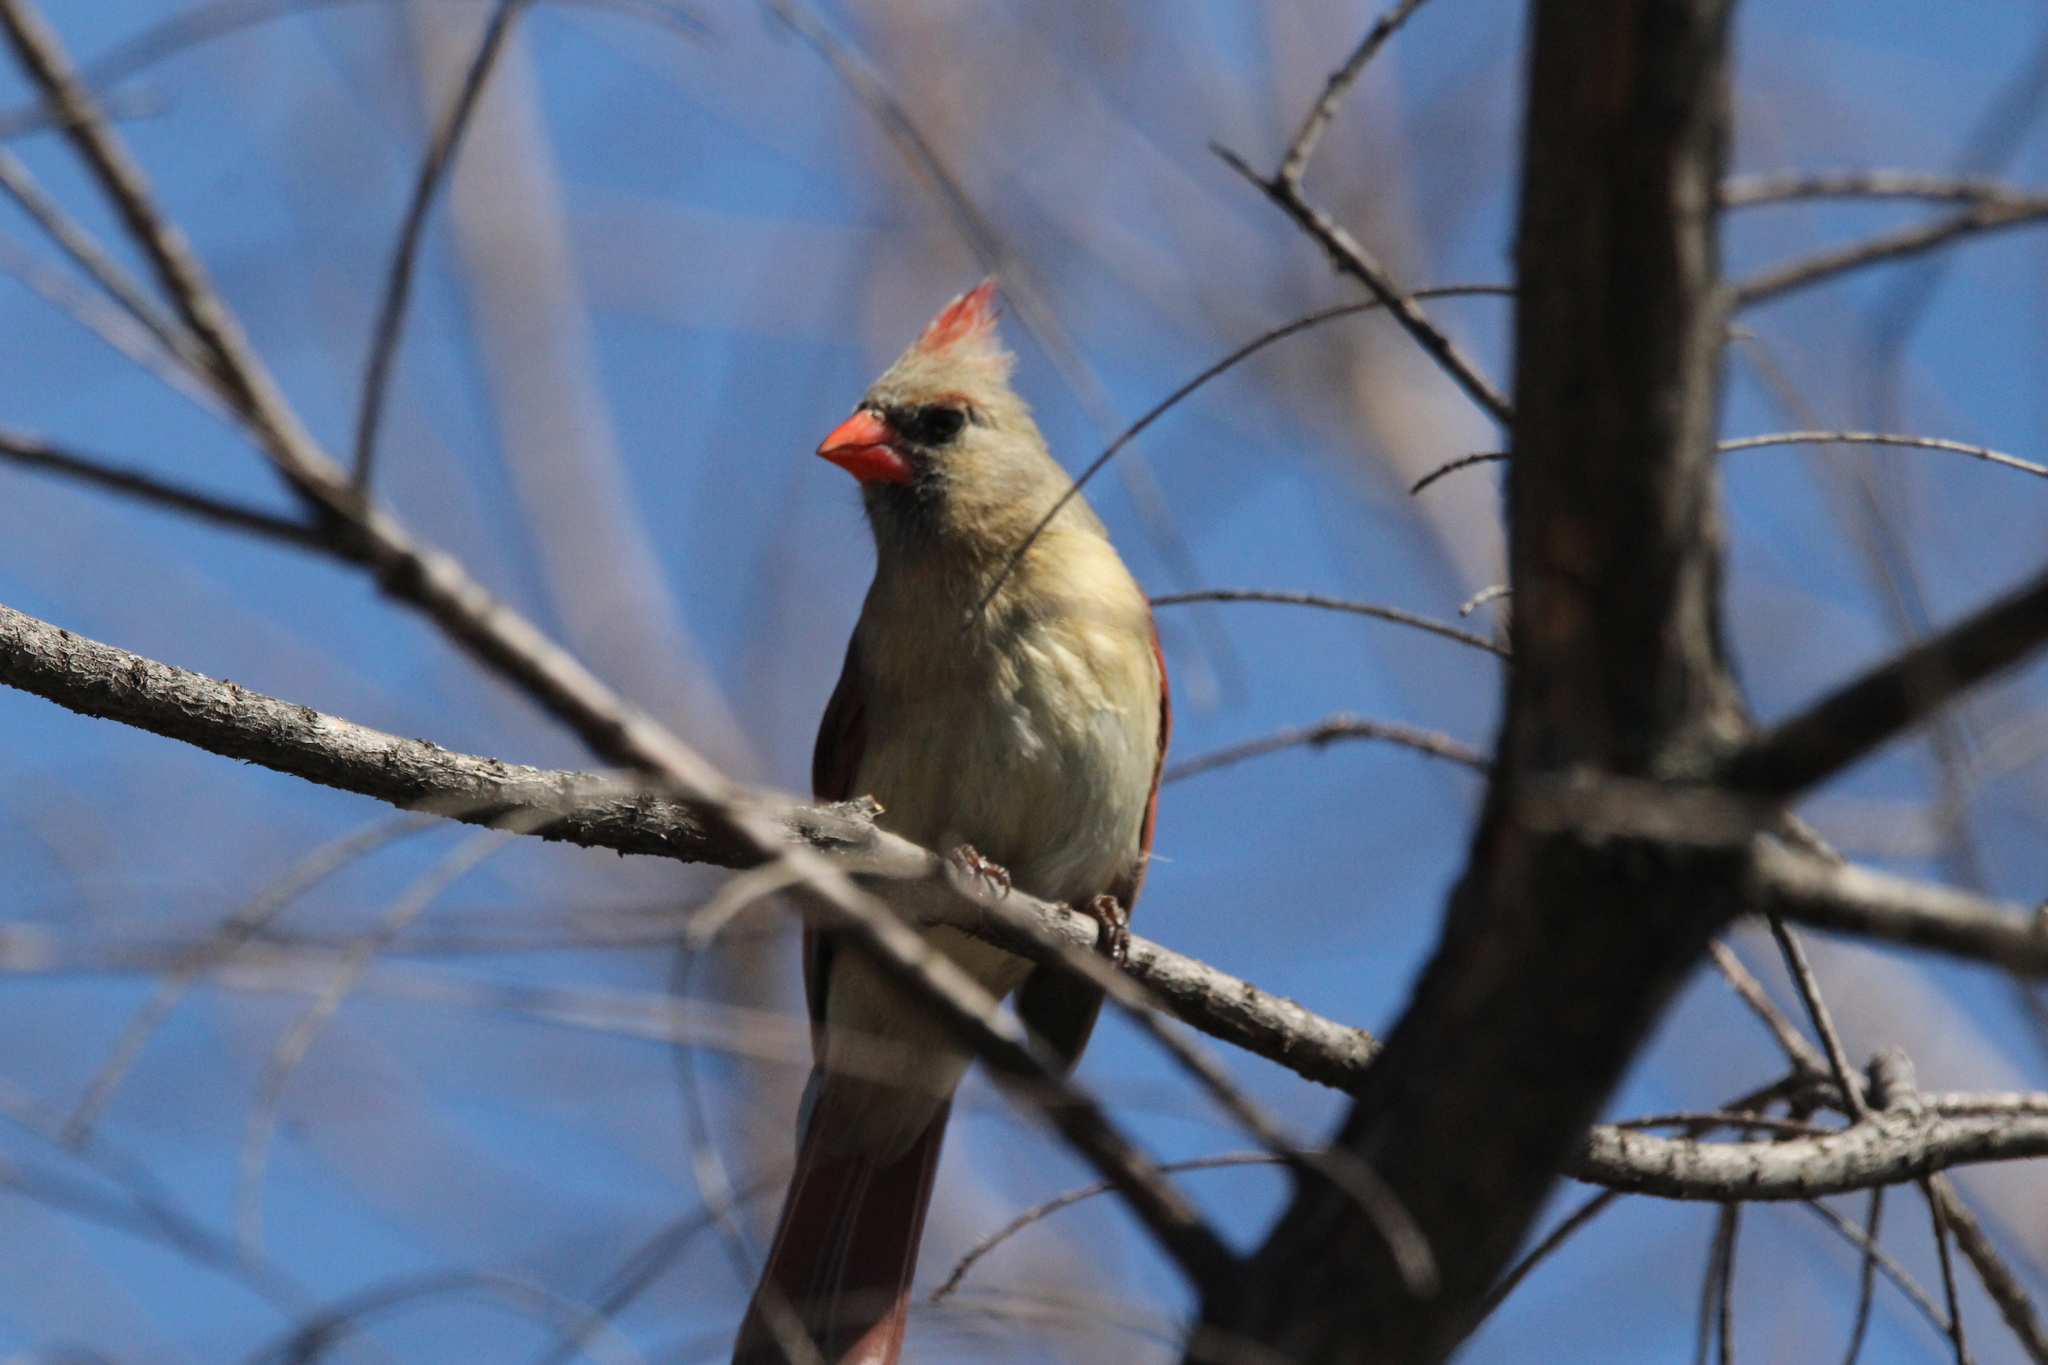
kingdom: Animalia
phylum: Chordata
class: Aves
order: Passeriformes
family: Cardinalidae
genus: Cardinalis
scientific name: Cardinalis cardinalis
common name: Northern cardinal
